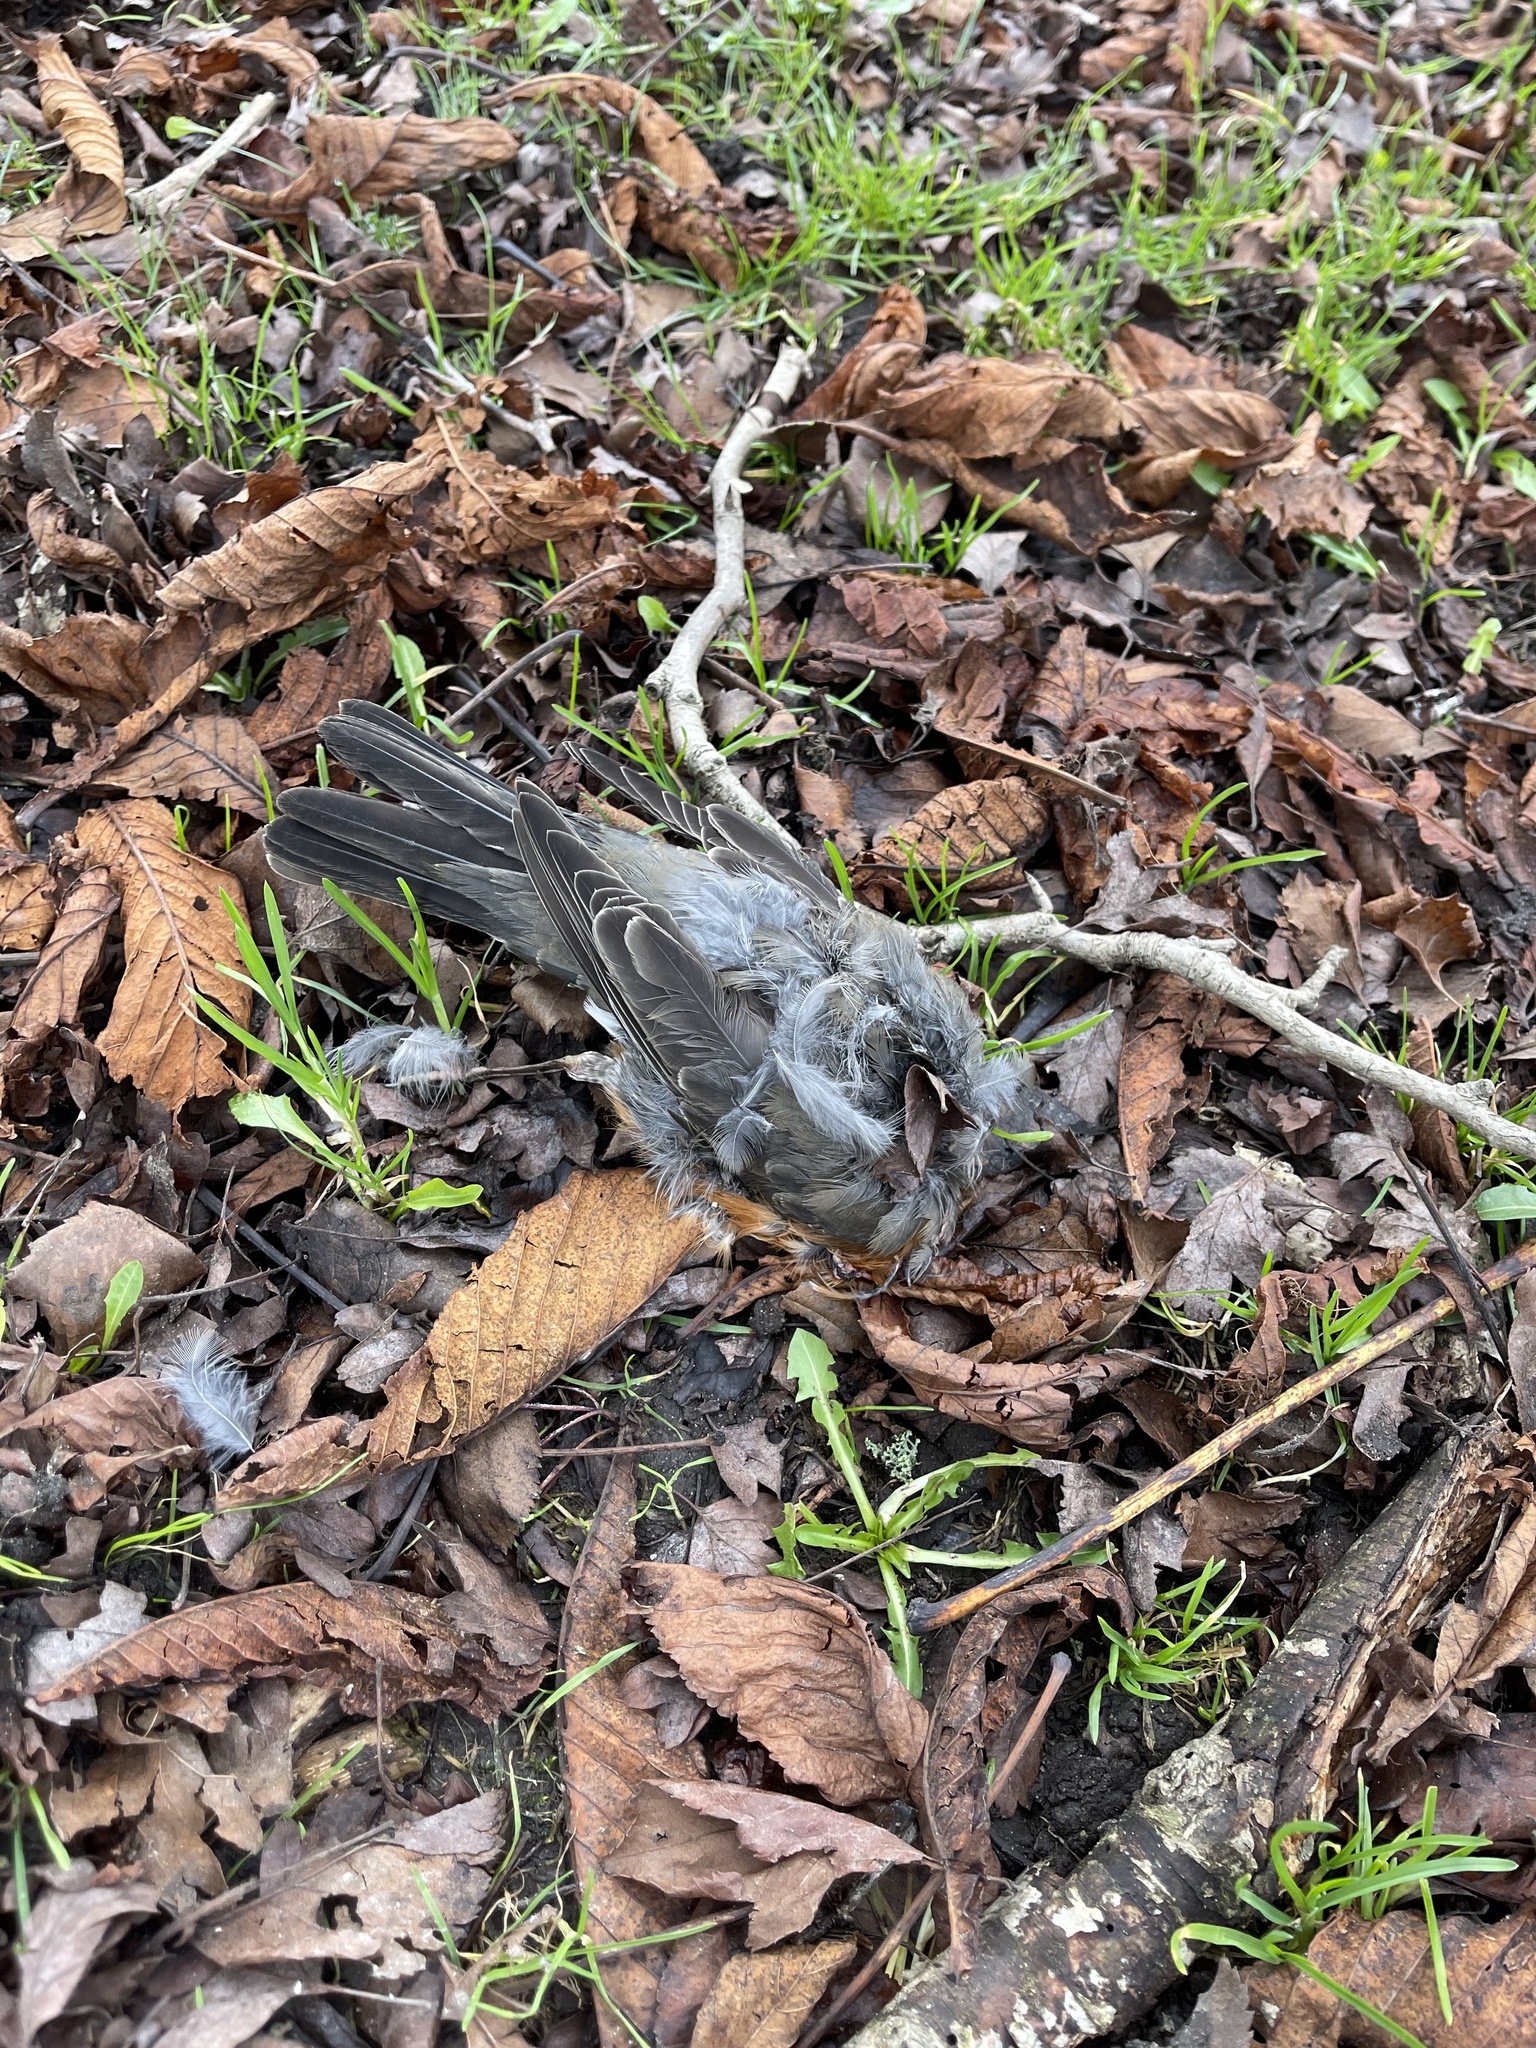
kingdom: Animalia
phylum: Chordata
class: Aves
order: Passeriformes
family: Turdidae
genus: Turdus
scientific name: Turdus migratorius
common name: American robin
